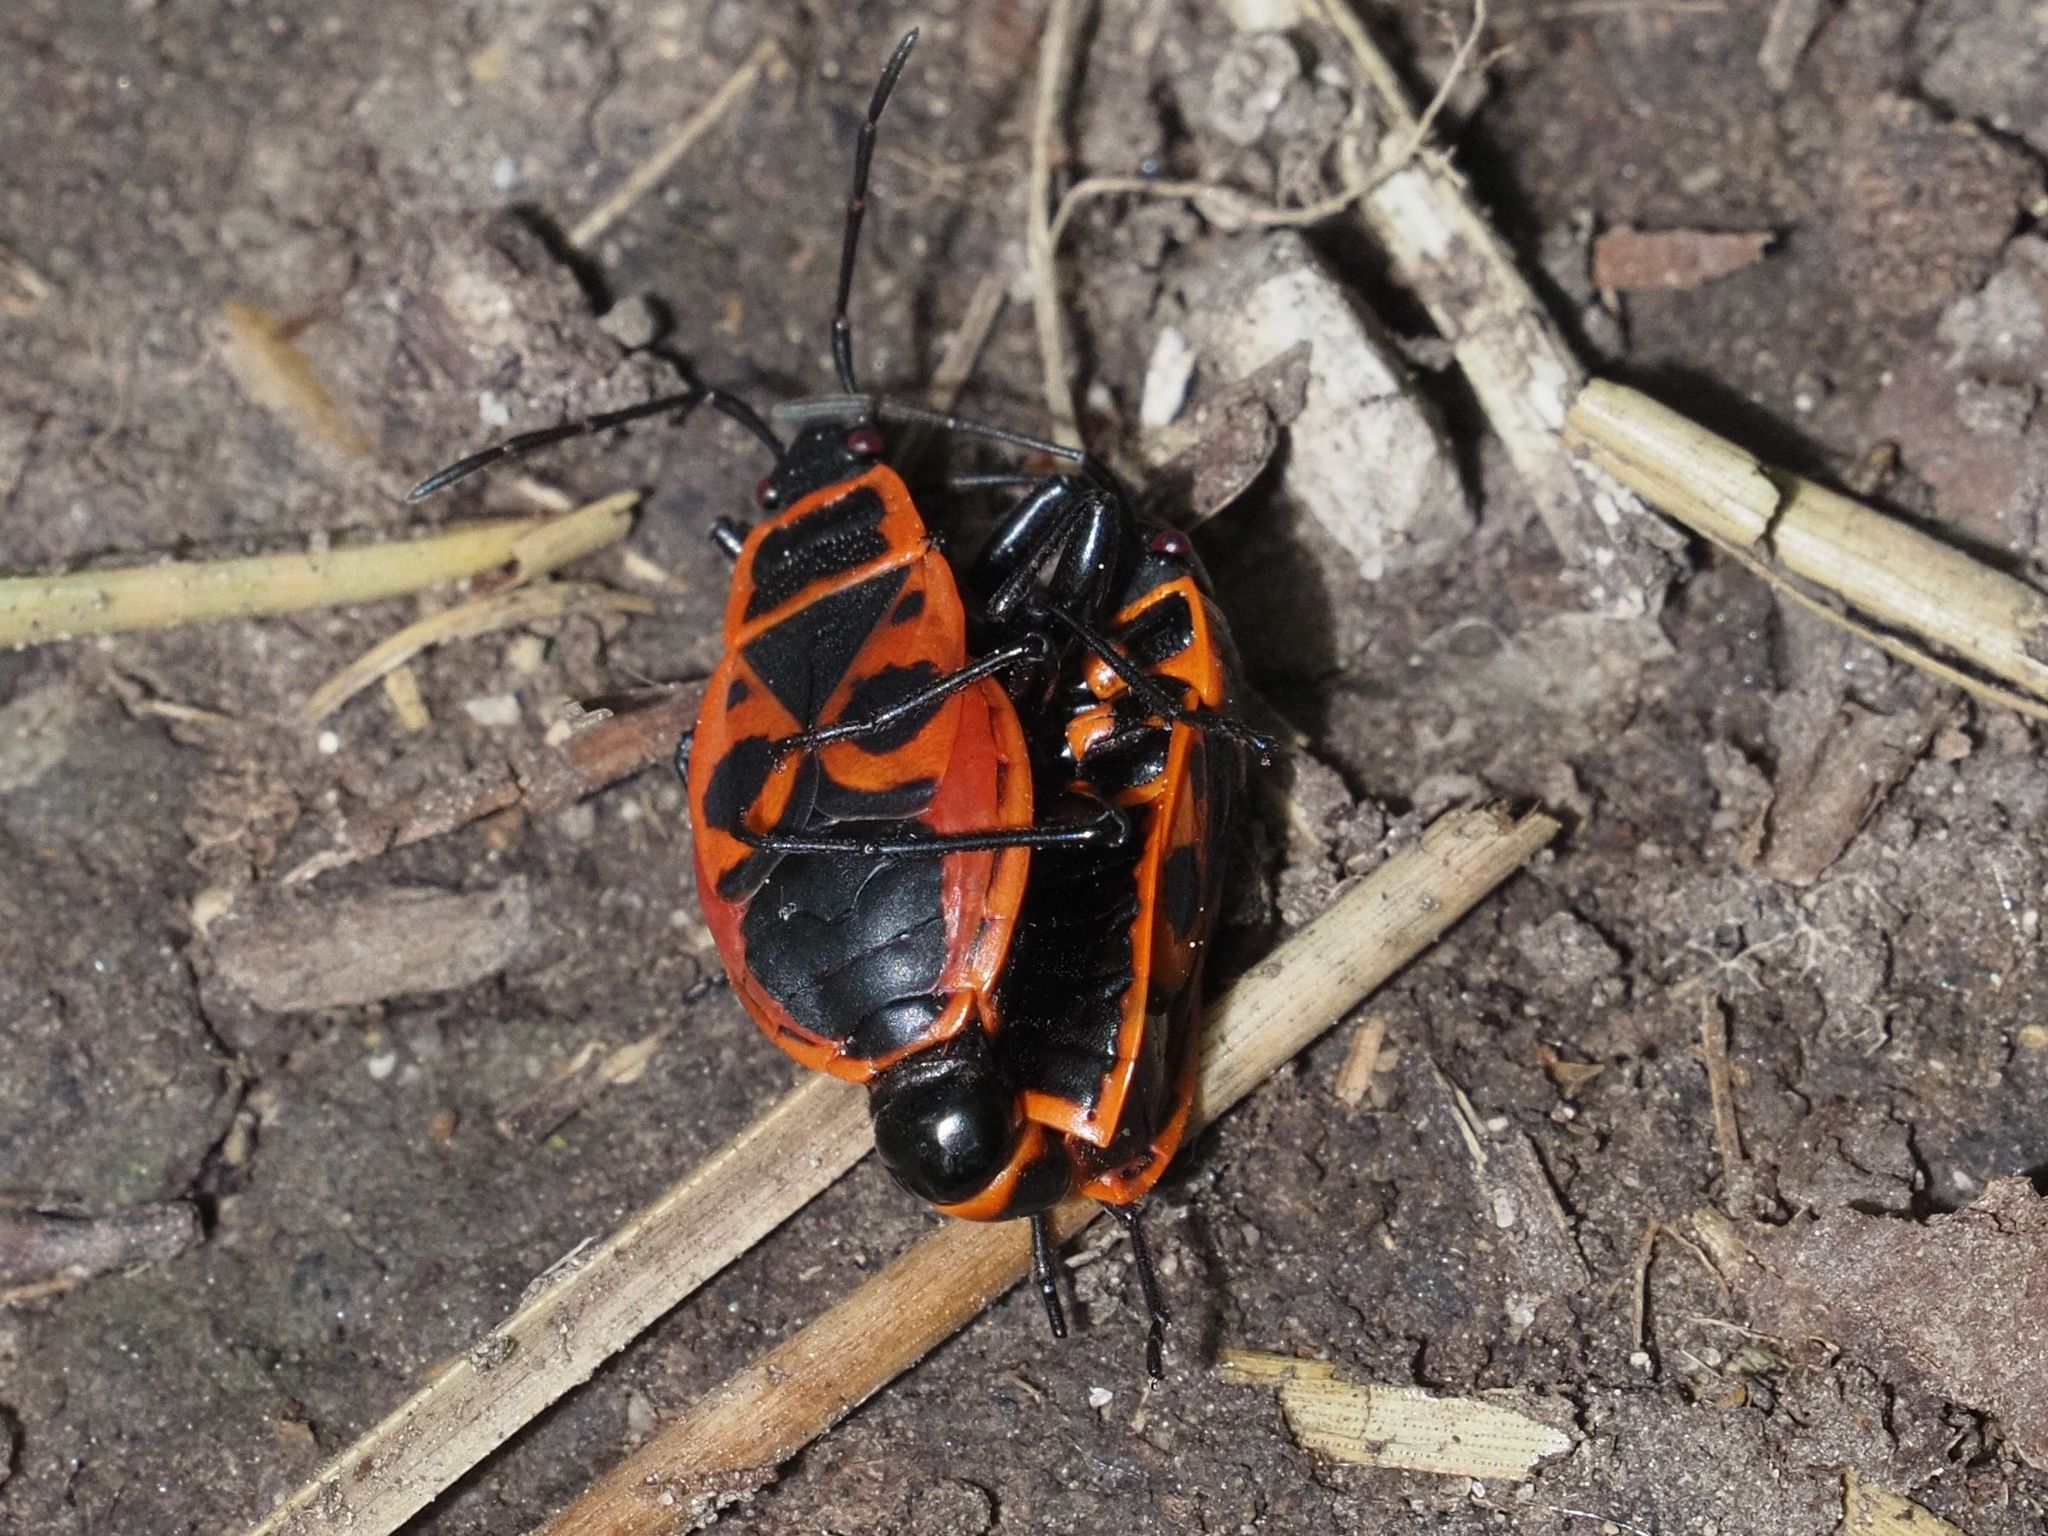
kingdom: Animalia
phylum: Arthropoda
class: Insecta
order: Hemiptera
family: Pyrrhocoridae
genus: Pyrrhocoris
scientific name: Pyrrhocoris apterus
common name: Firebug
